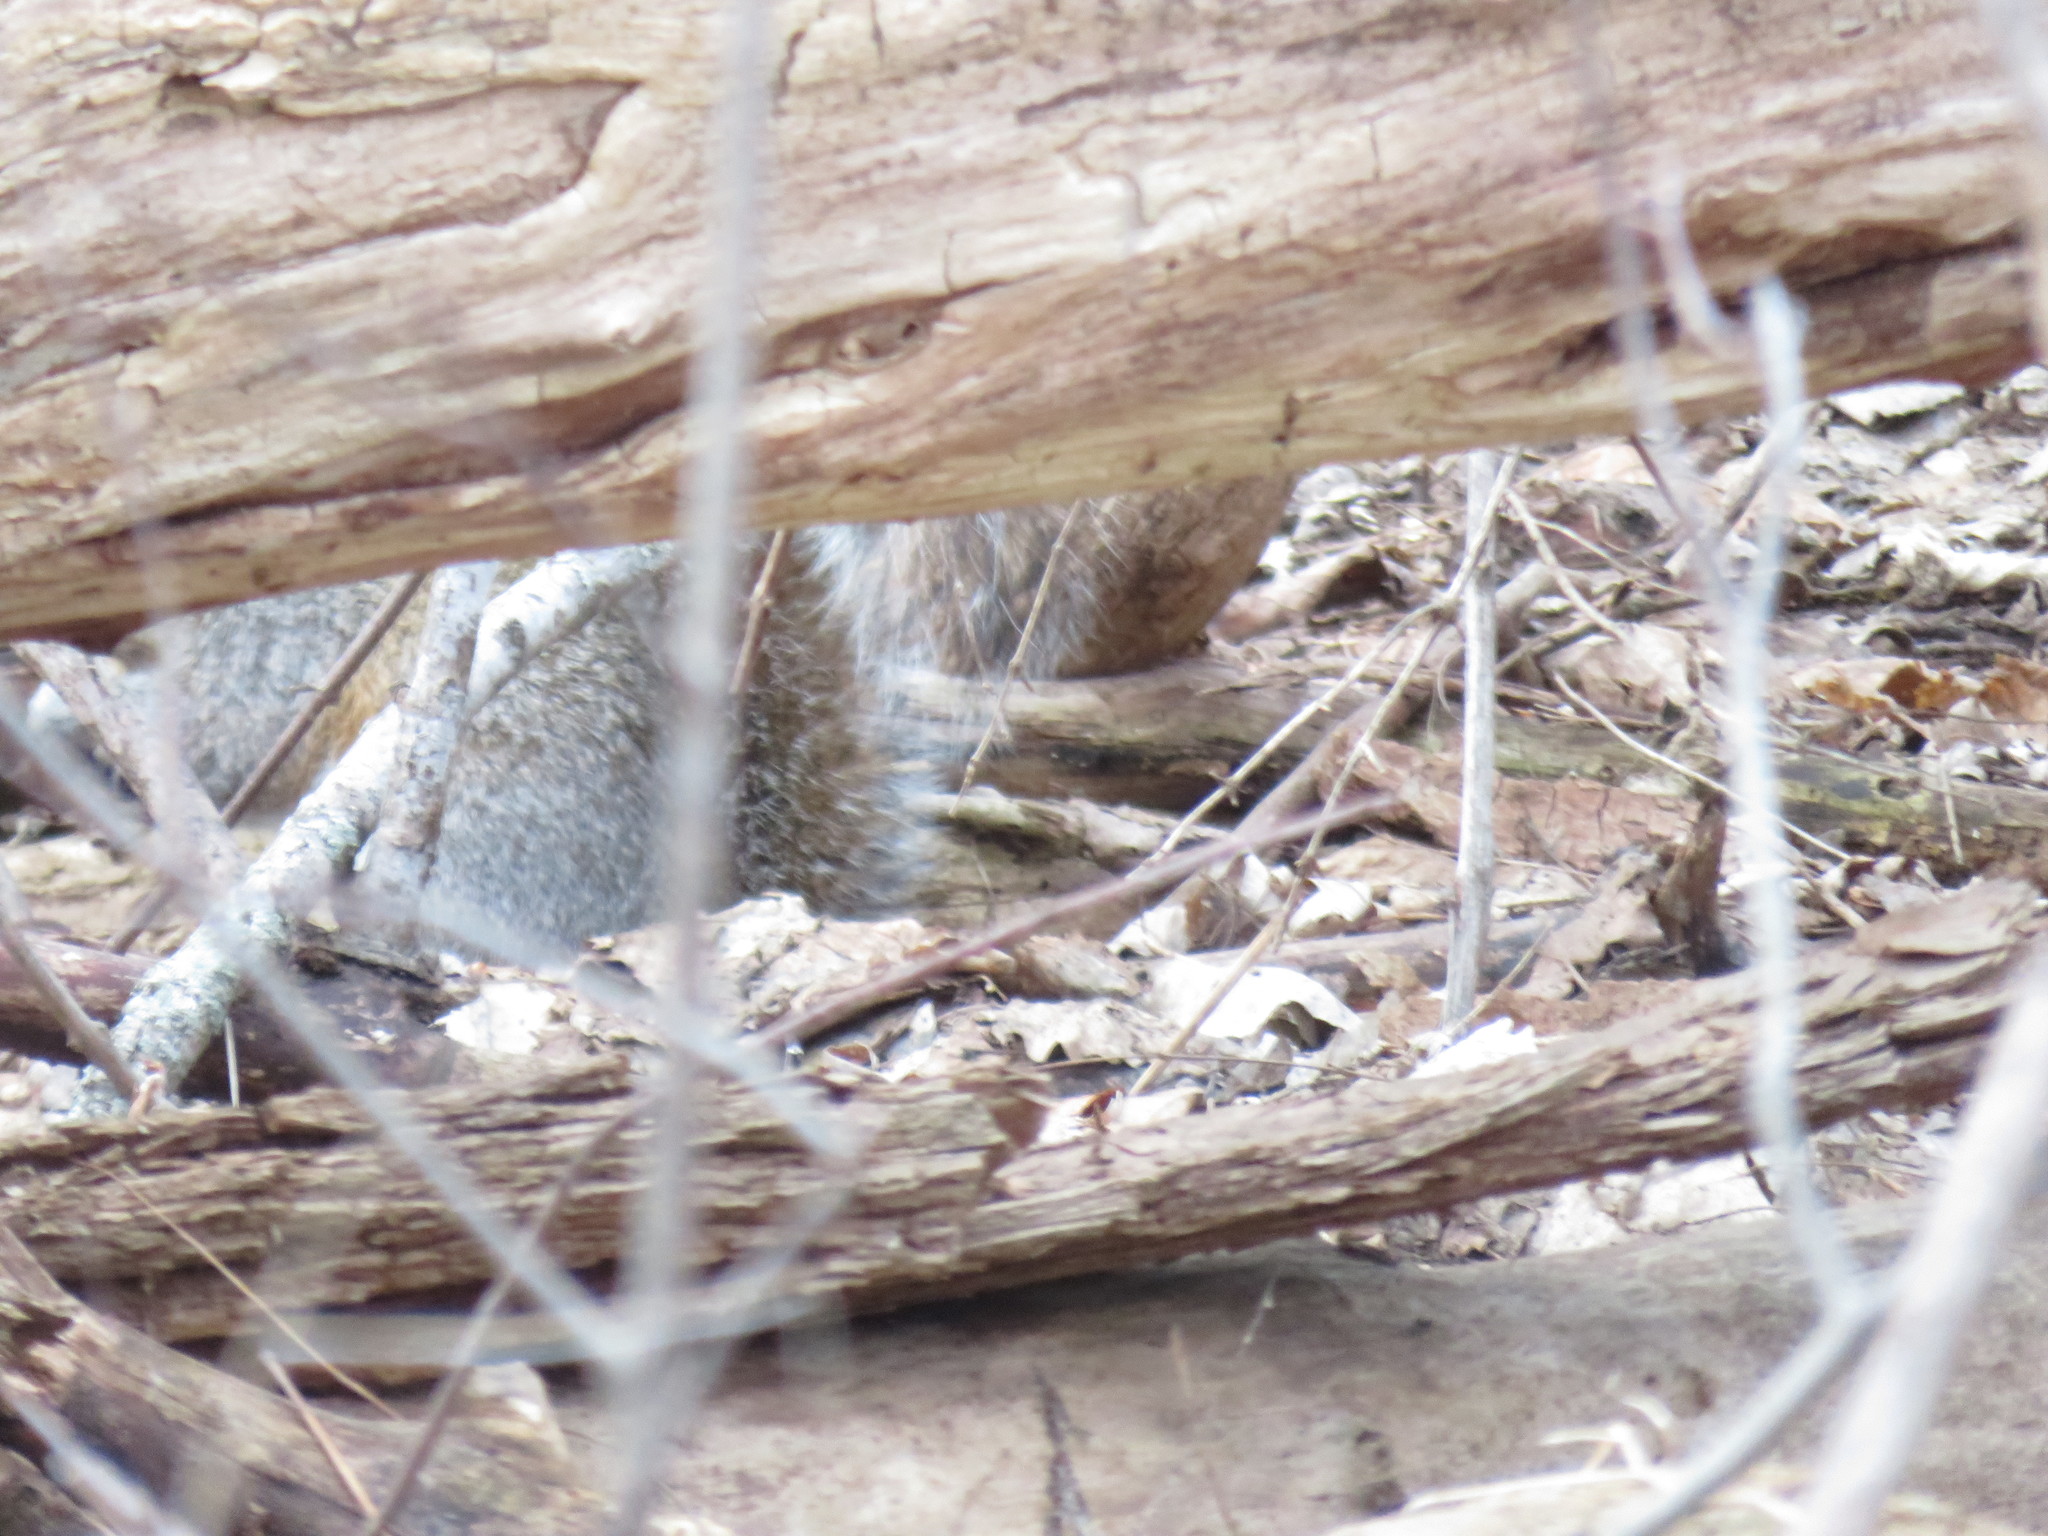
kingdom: Animalia
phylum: Chordata
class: Mammalia
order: Rodentia
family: Sciuridae
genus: Sciurus
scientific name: Sciurus carolinensis
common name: Eastern gray squirrel
